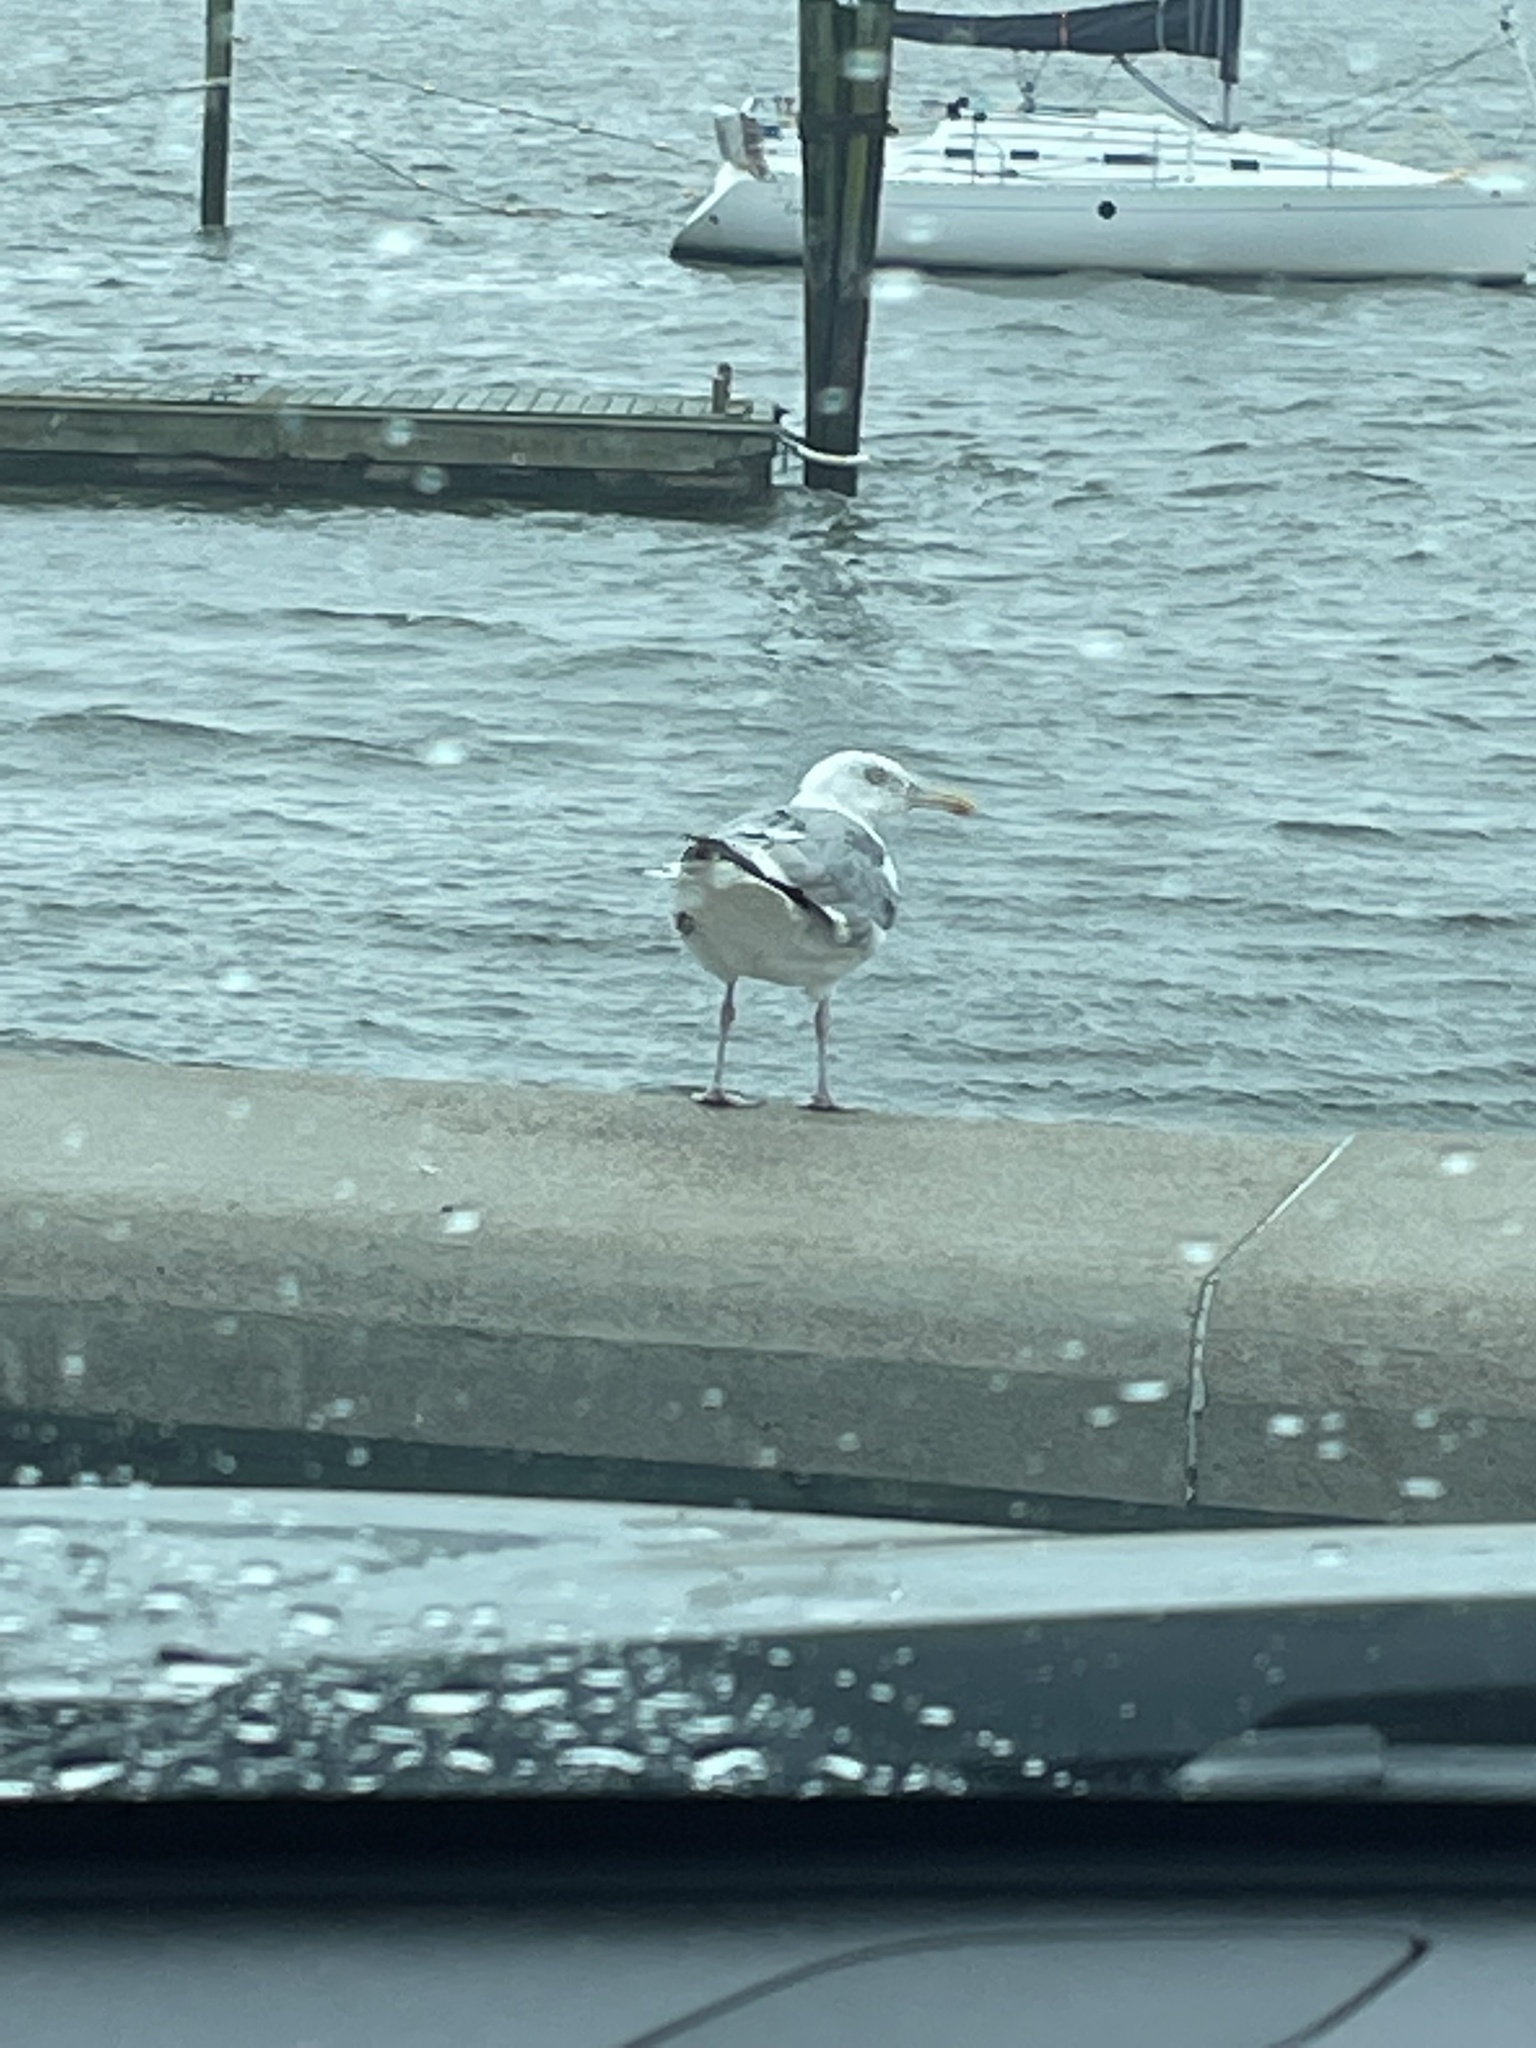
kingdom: Animalia
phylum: Chordata
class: Aves
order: Charadriiformes
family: Laridae
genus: Larus
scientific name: Larus argentatus
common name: Herring gull
